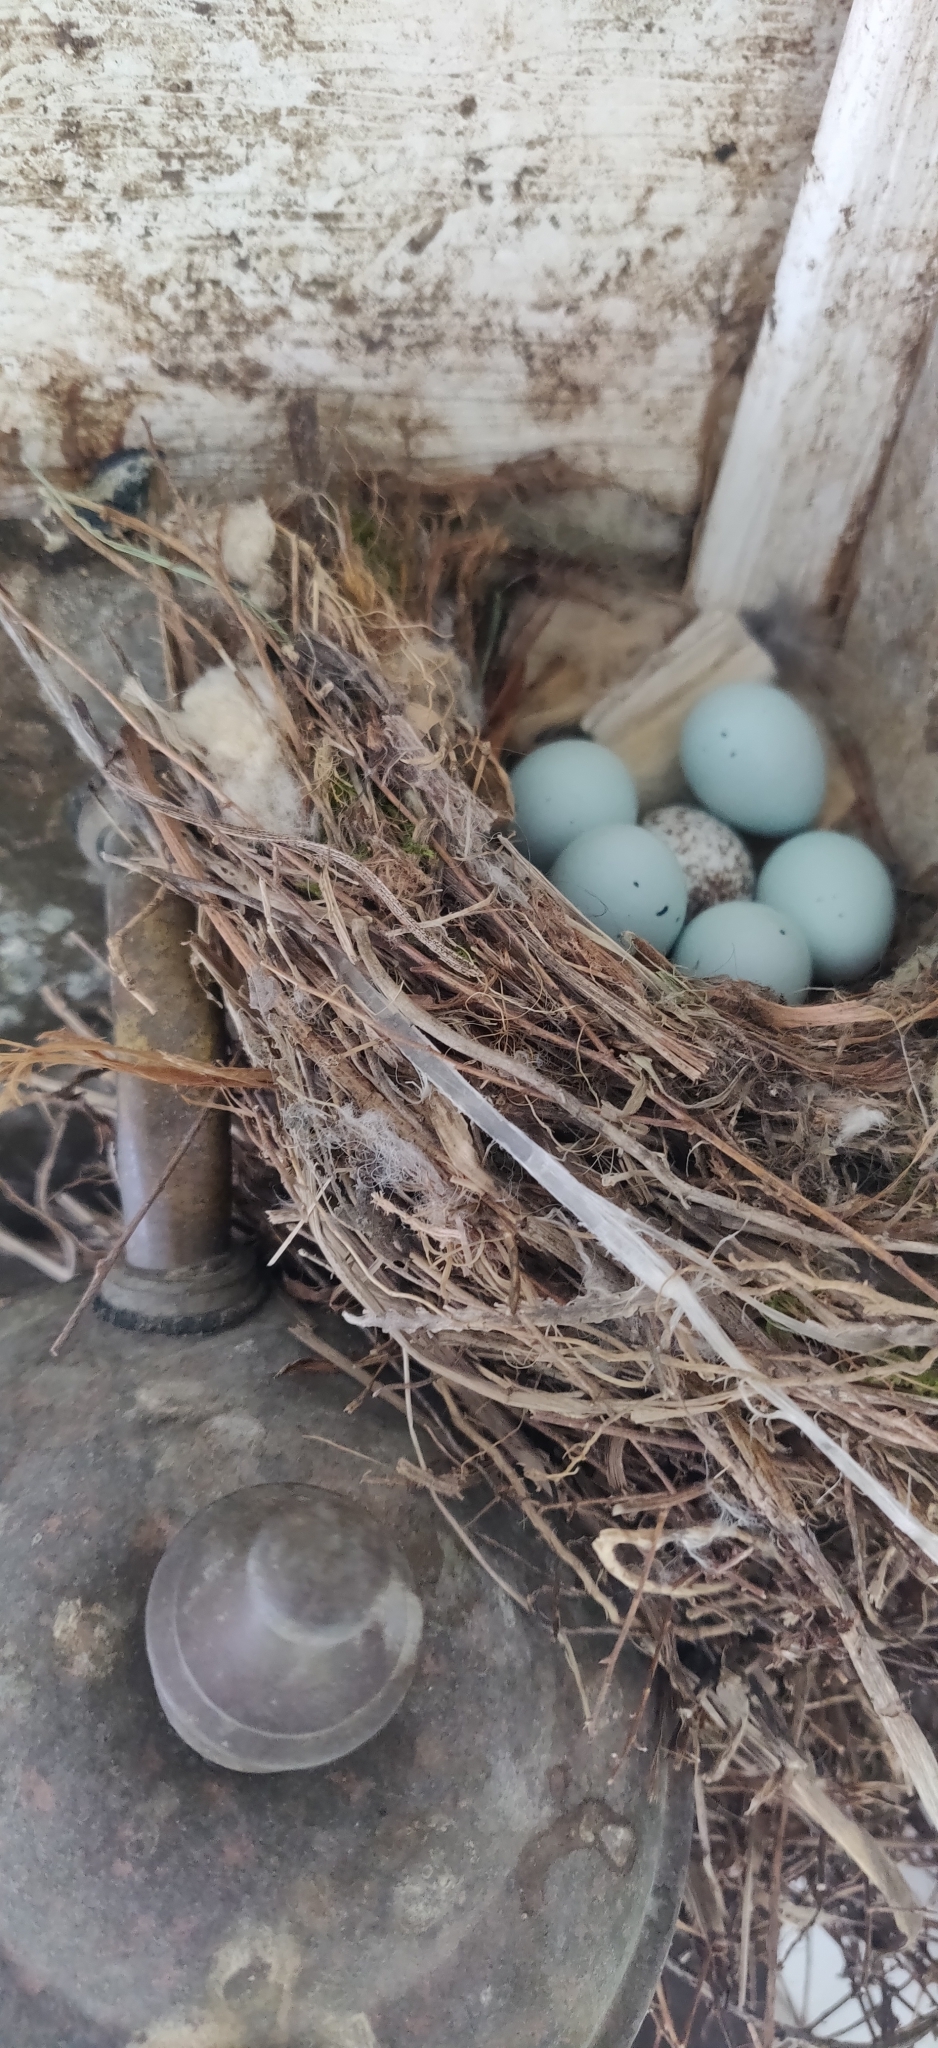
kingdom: Animalia
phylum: Chordata
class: Aves
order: Passeriformes
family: Icteridae
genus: Molothrus
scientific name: Molothrus ater
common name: Brown-headed cowbird
